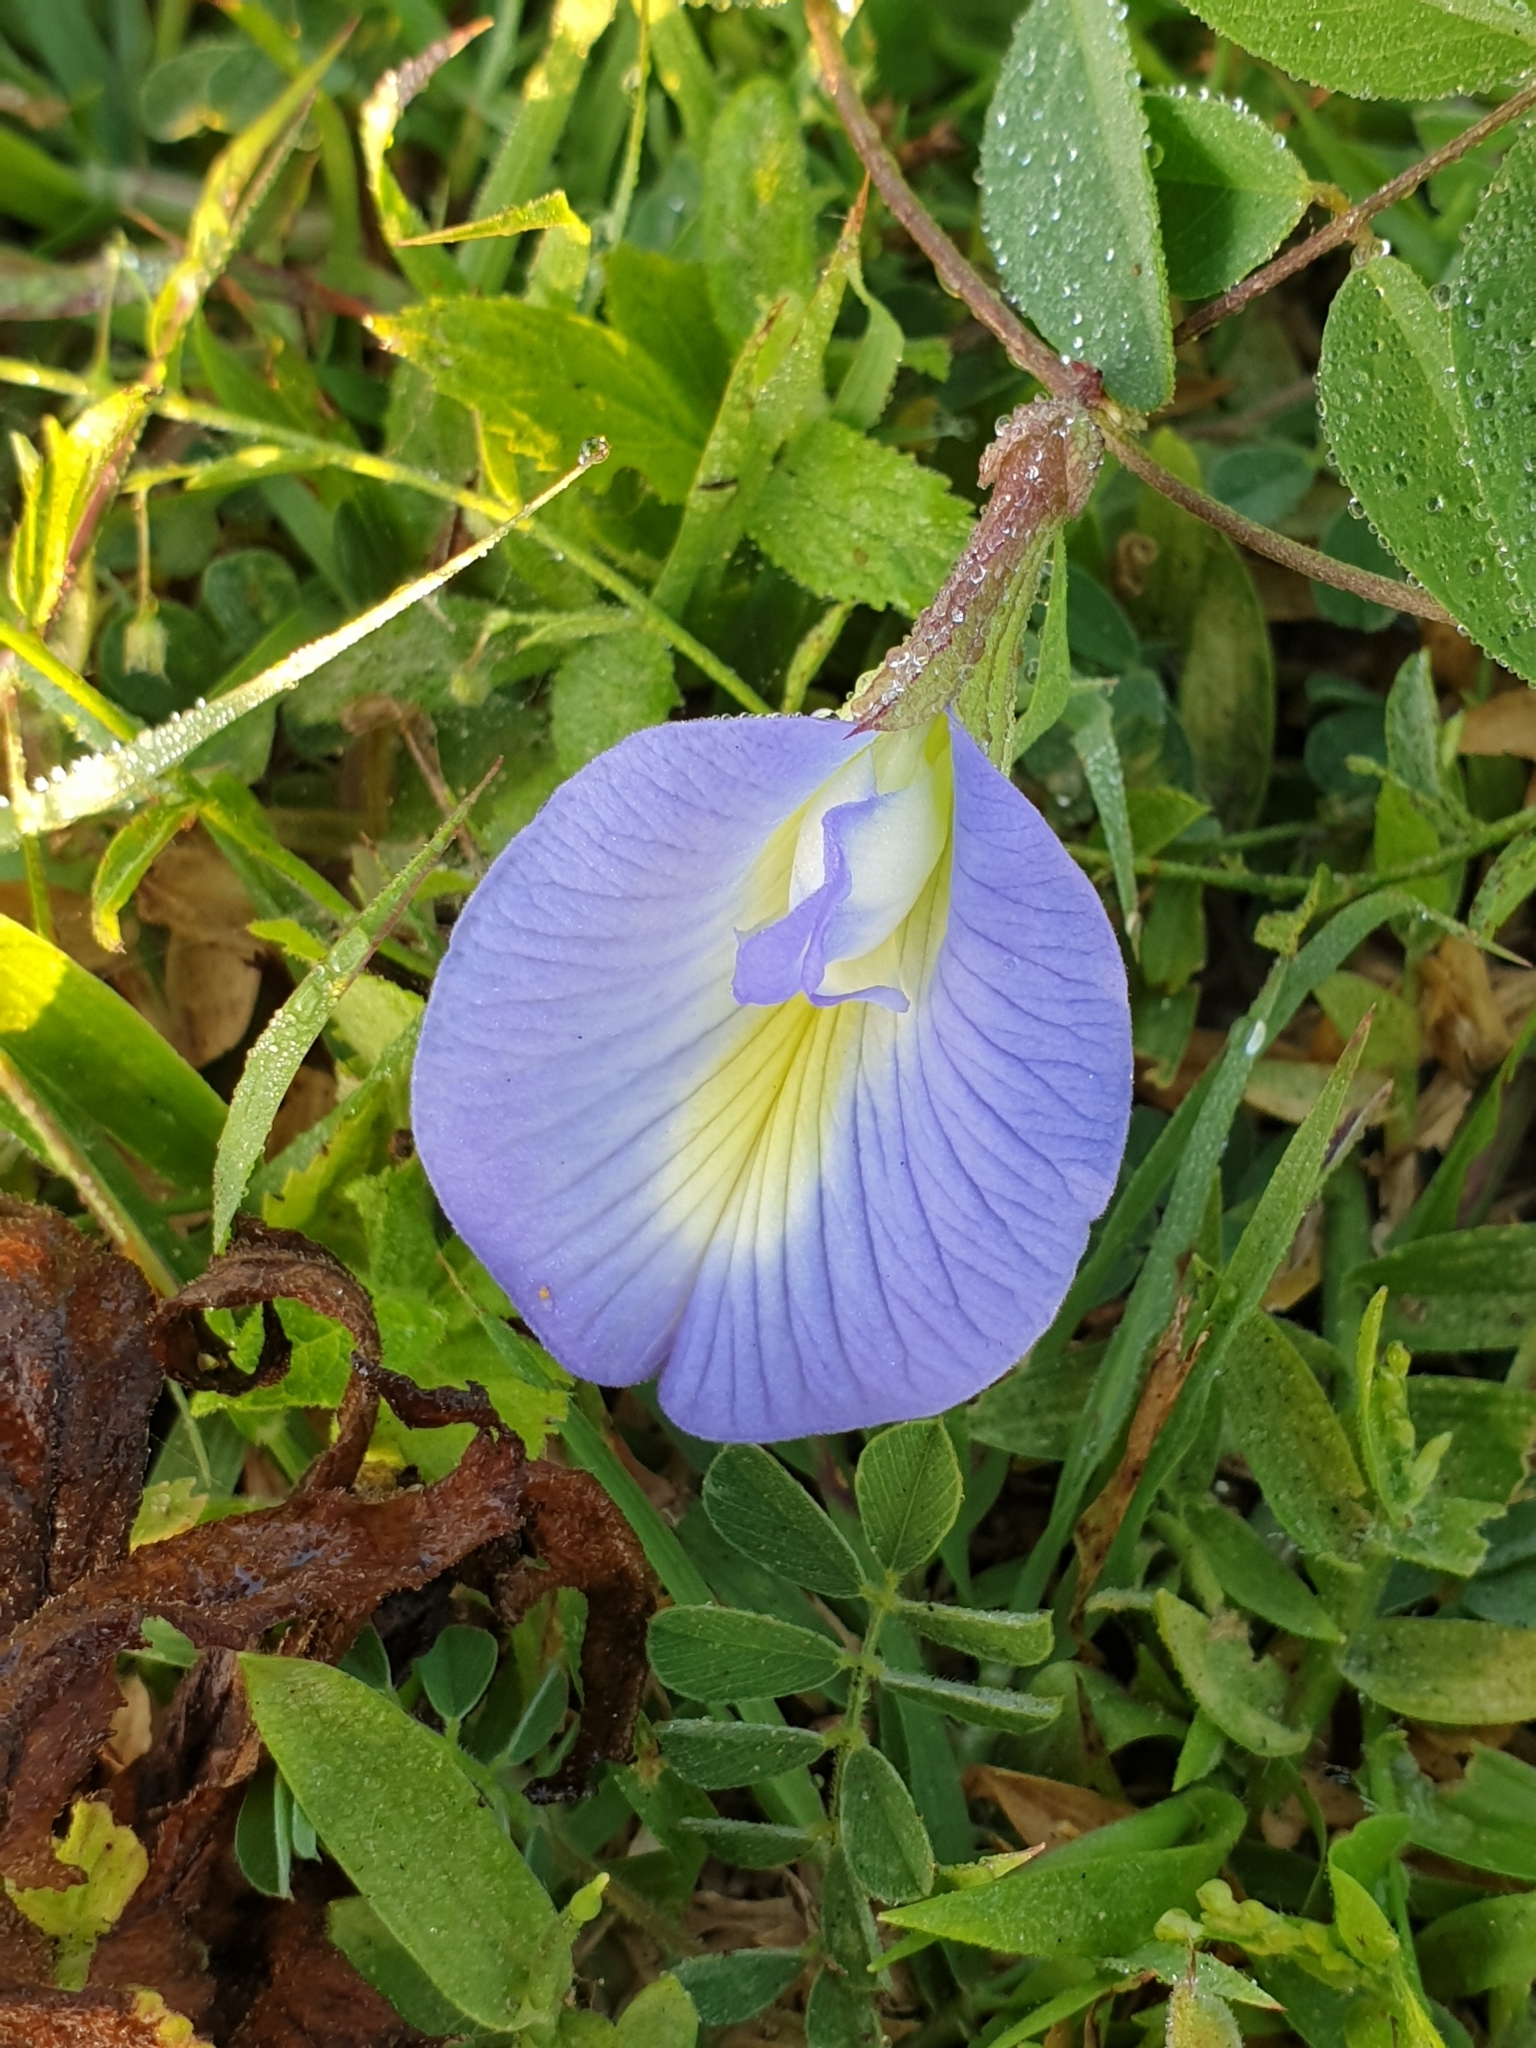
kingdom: Plantae
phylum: Tracheophyta
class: Magnoliopsida
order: Fabales
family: Fabaceae
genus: Clitoria
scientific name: Clitoria ternatea
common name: Asian pigeonwings
